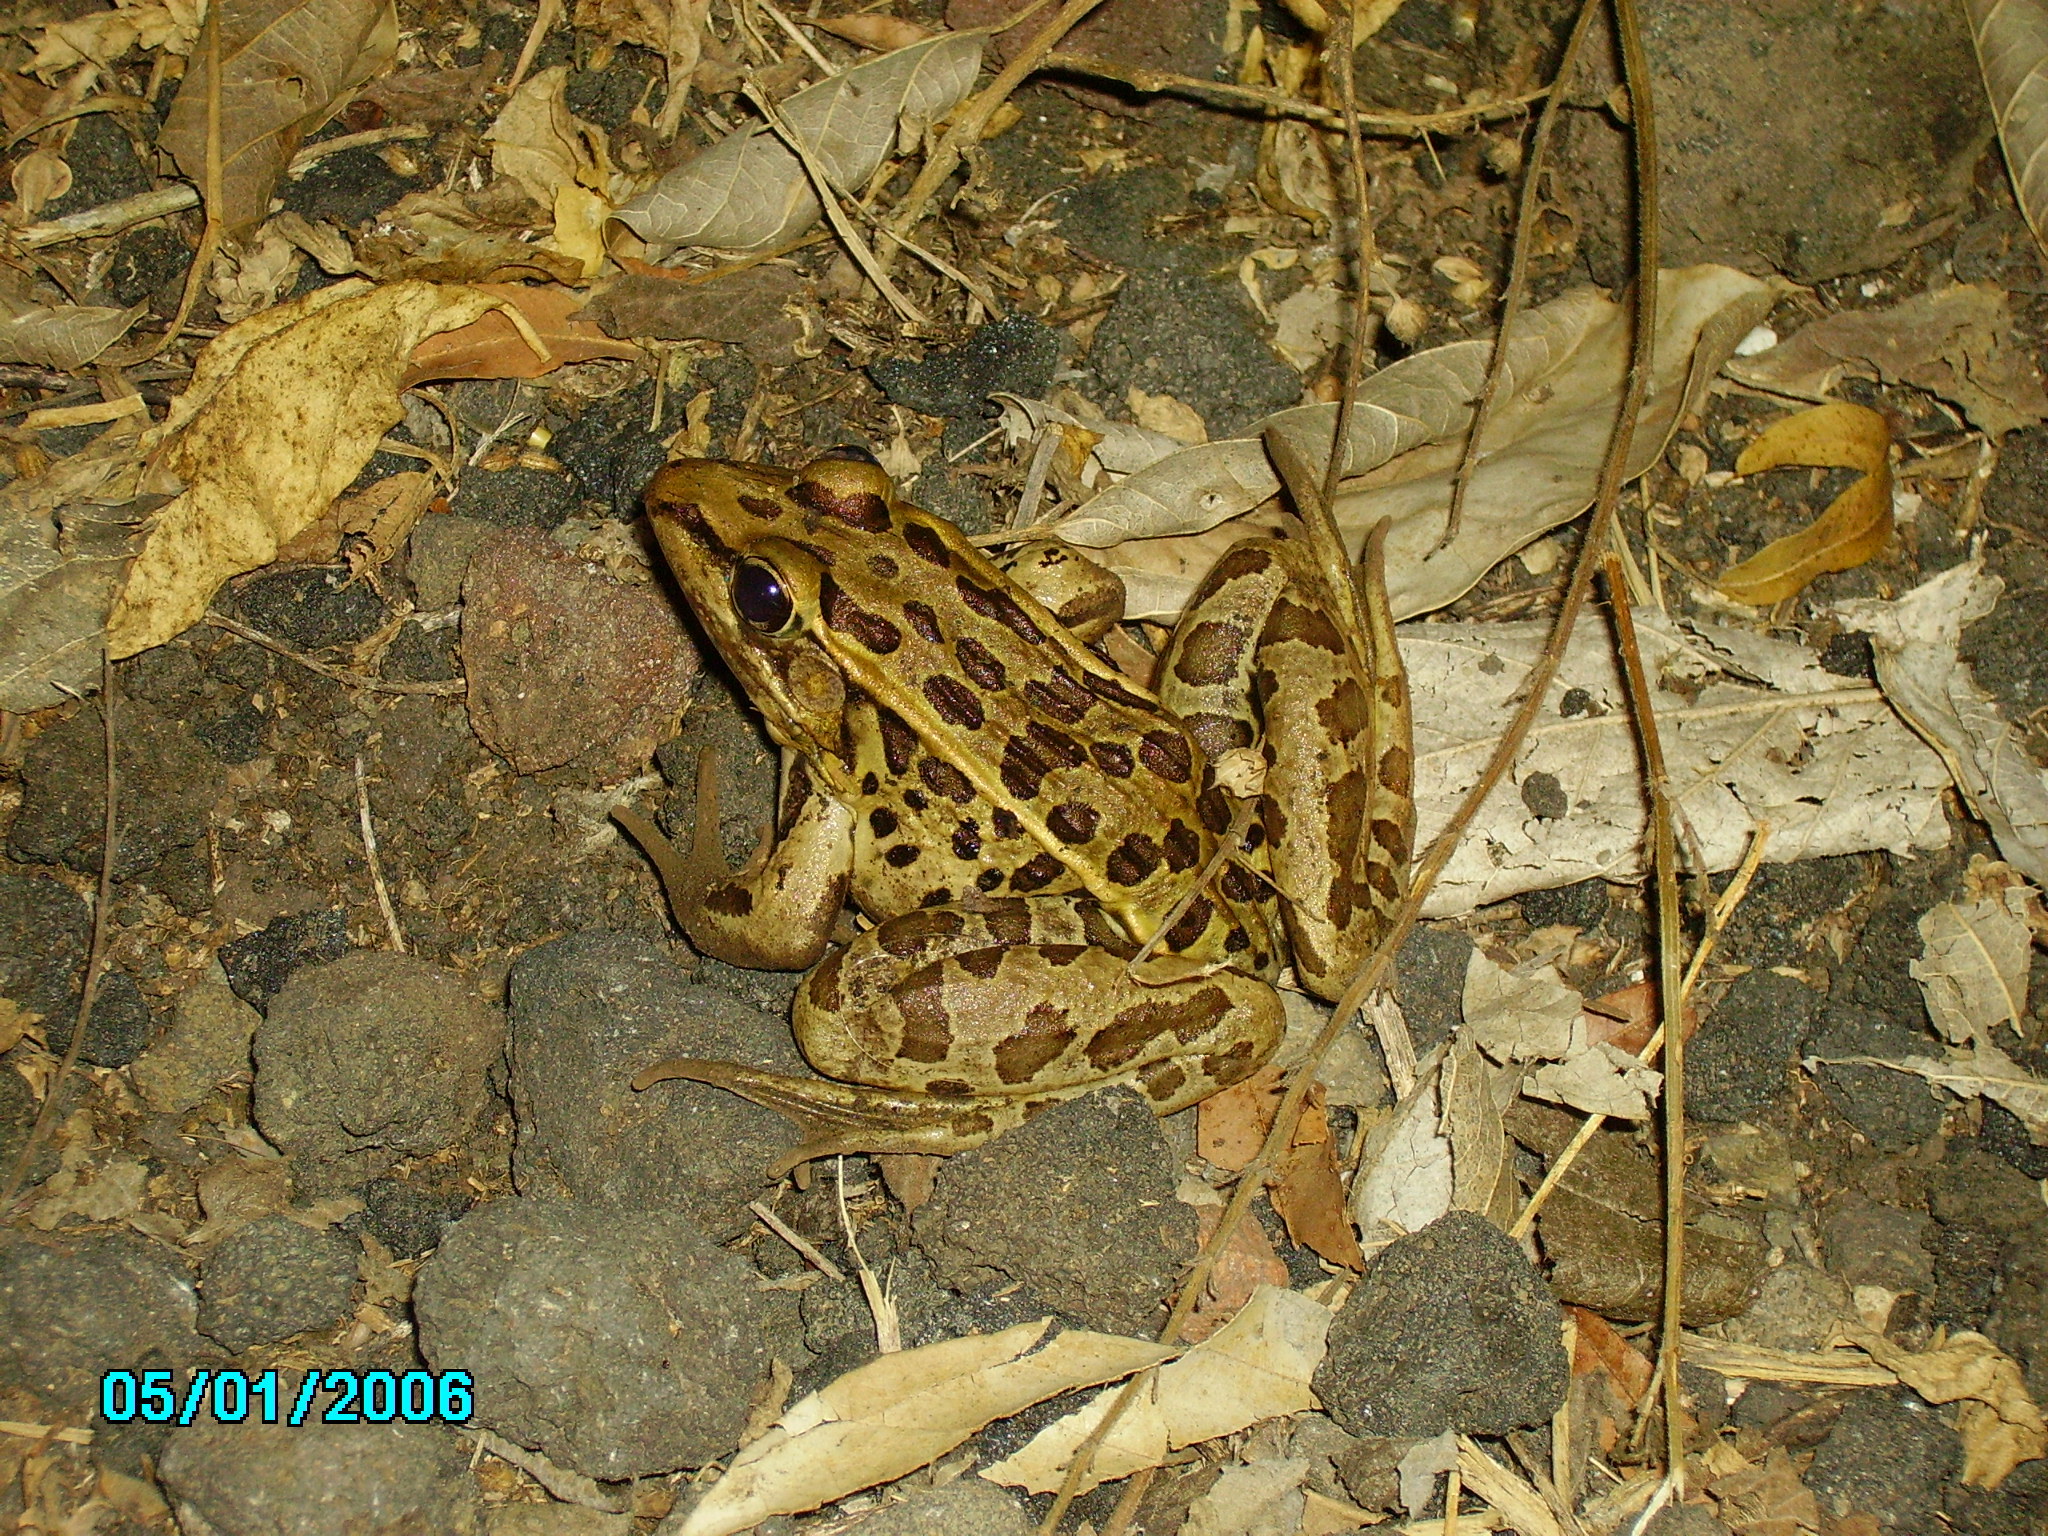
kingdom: Animalia
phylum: Chordata
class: Amphibia
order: Anura
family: Ranidae
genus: Lithobates
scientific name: Lithobates forreri
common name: Forrer's grass frog
